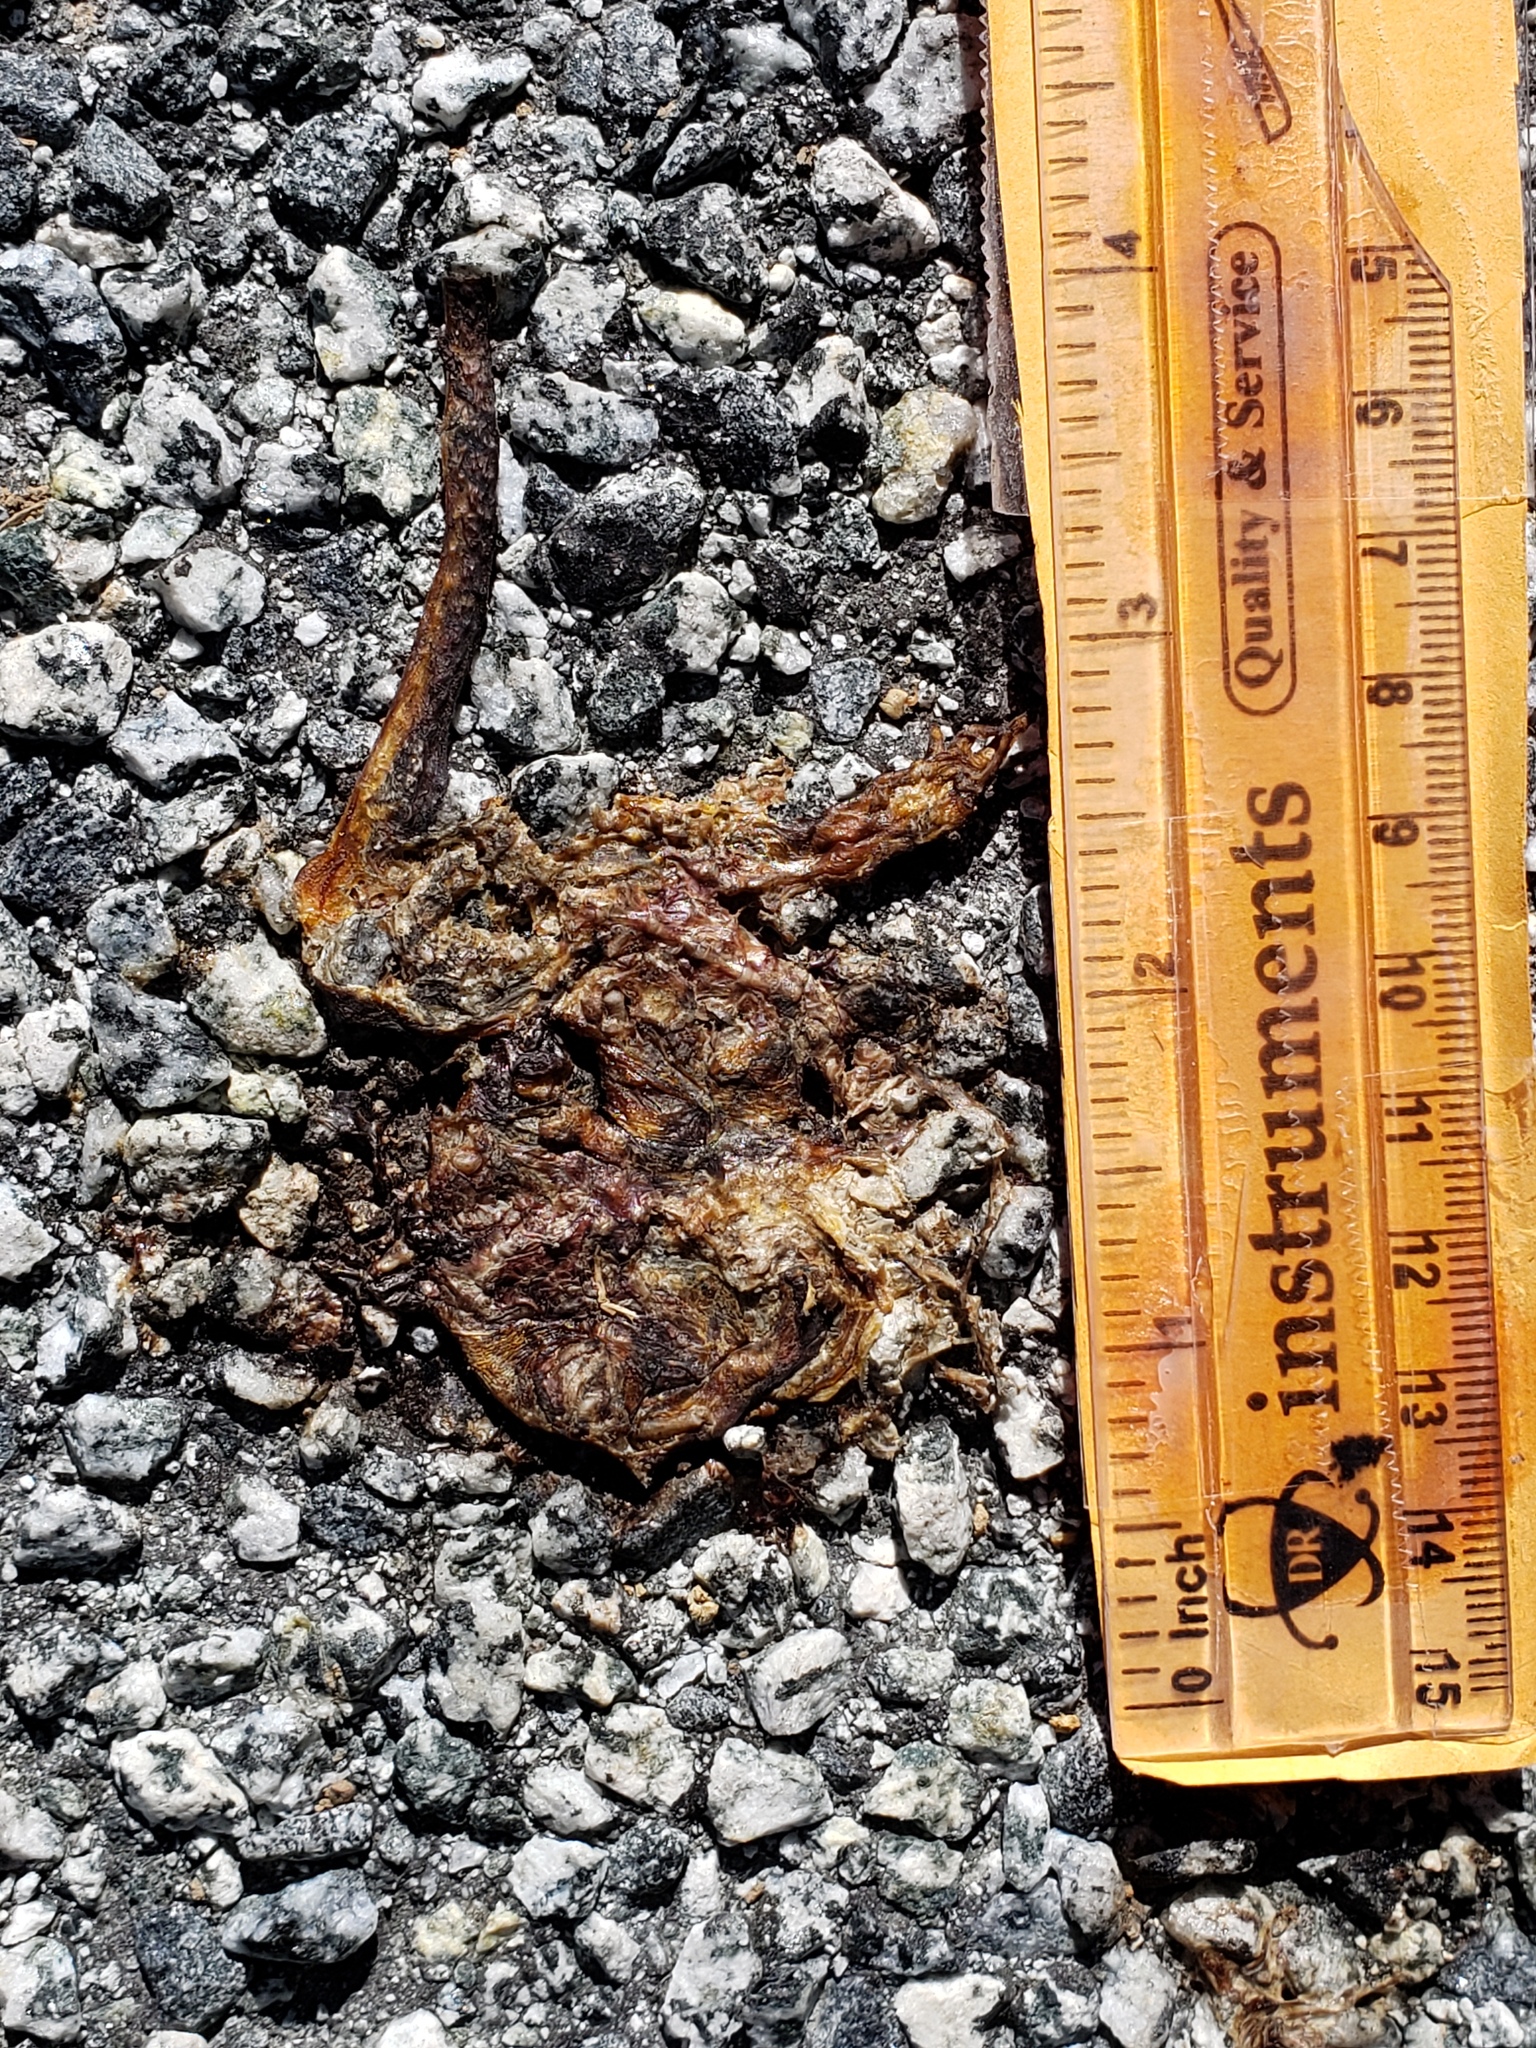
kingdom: Animalia
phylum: Chordata
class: Amphibia
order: Caudata
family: Salamandridae
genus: Taricha
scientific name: Taricha
